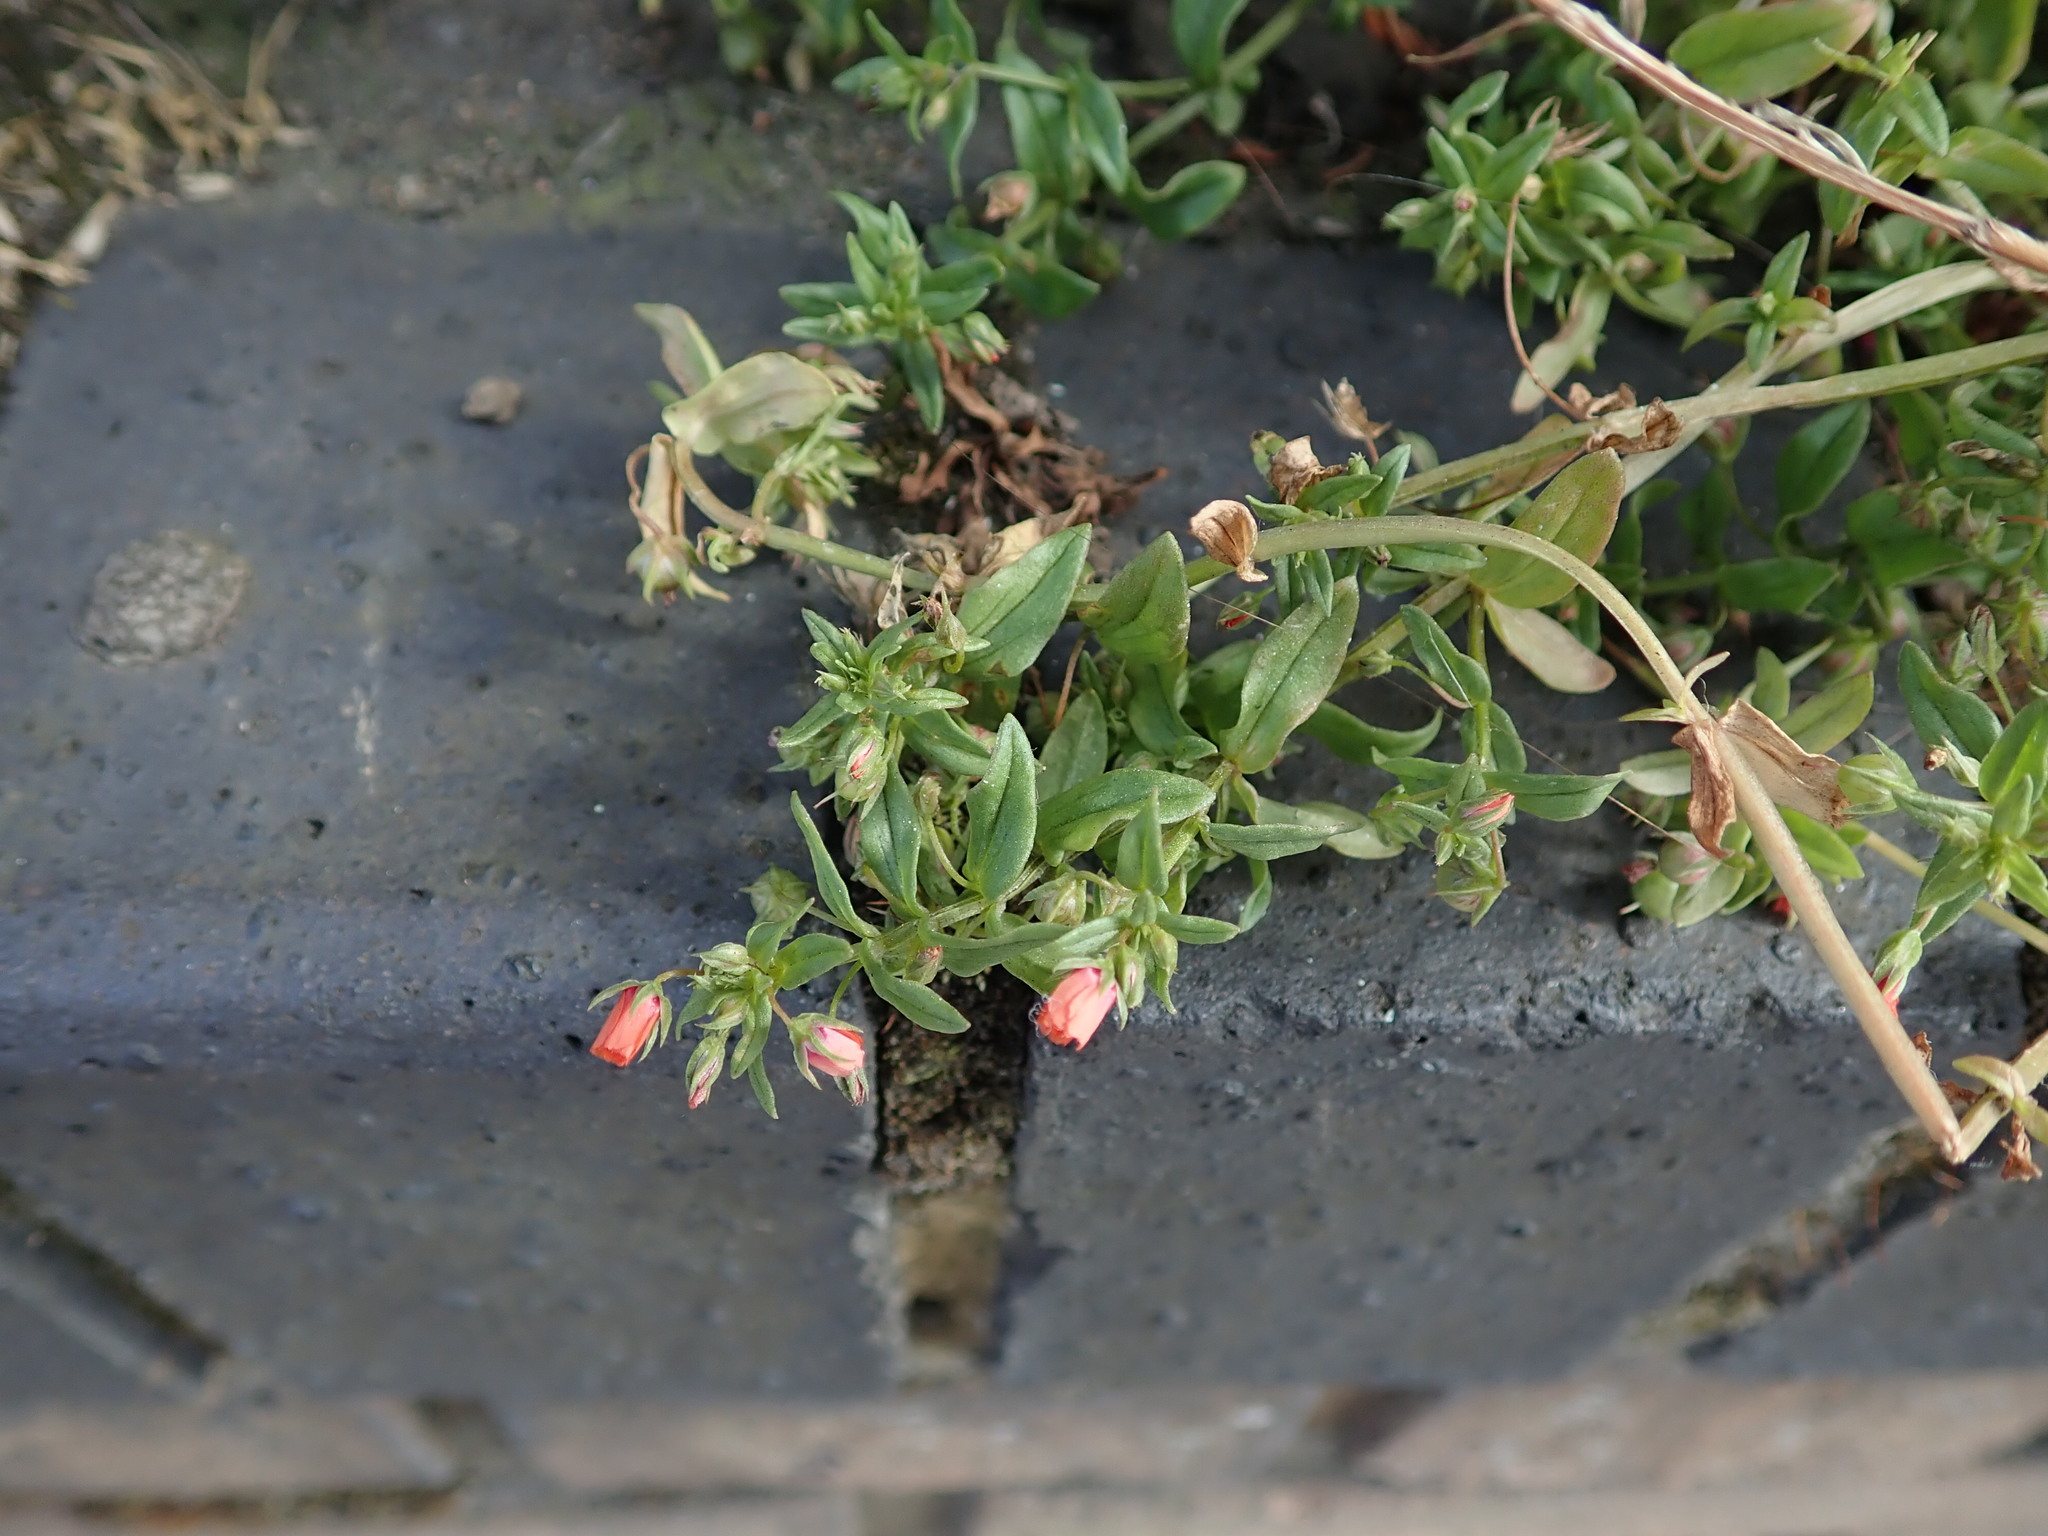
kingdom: Plantae
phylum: Tracheophyta
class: Magnoliopsida
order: Ericales
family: Primulaceae
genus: Lysimachia
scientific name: Lysimachia arvensis
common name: Scarlet pimpernel
